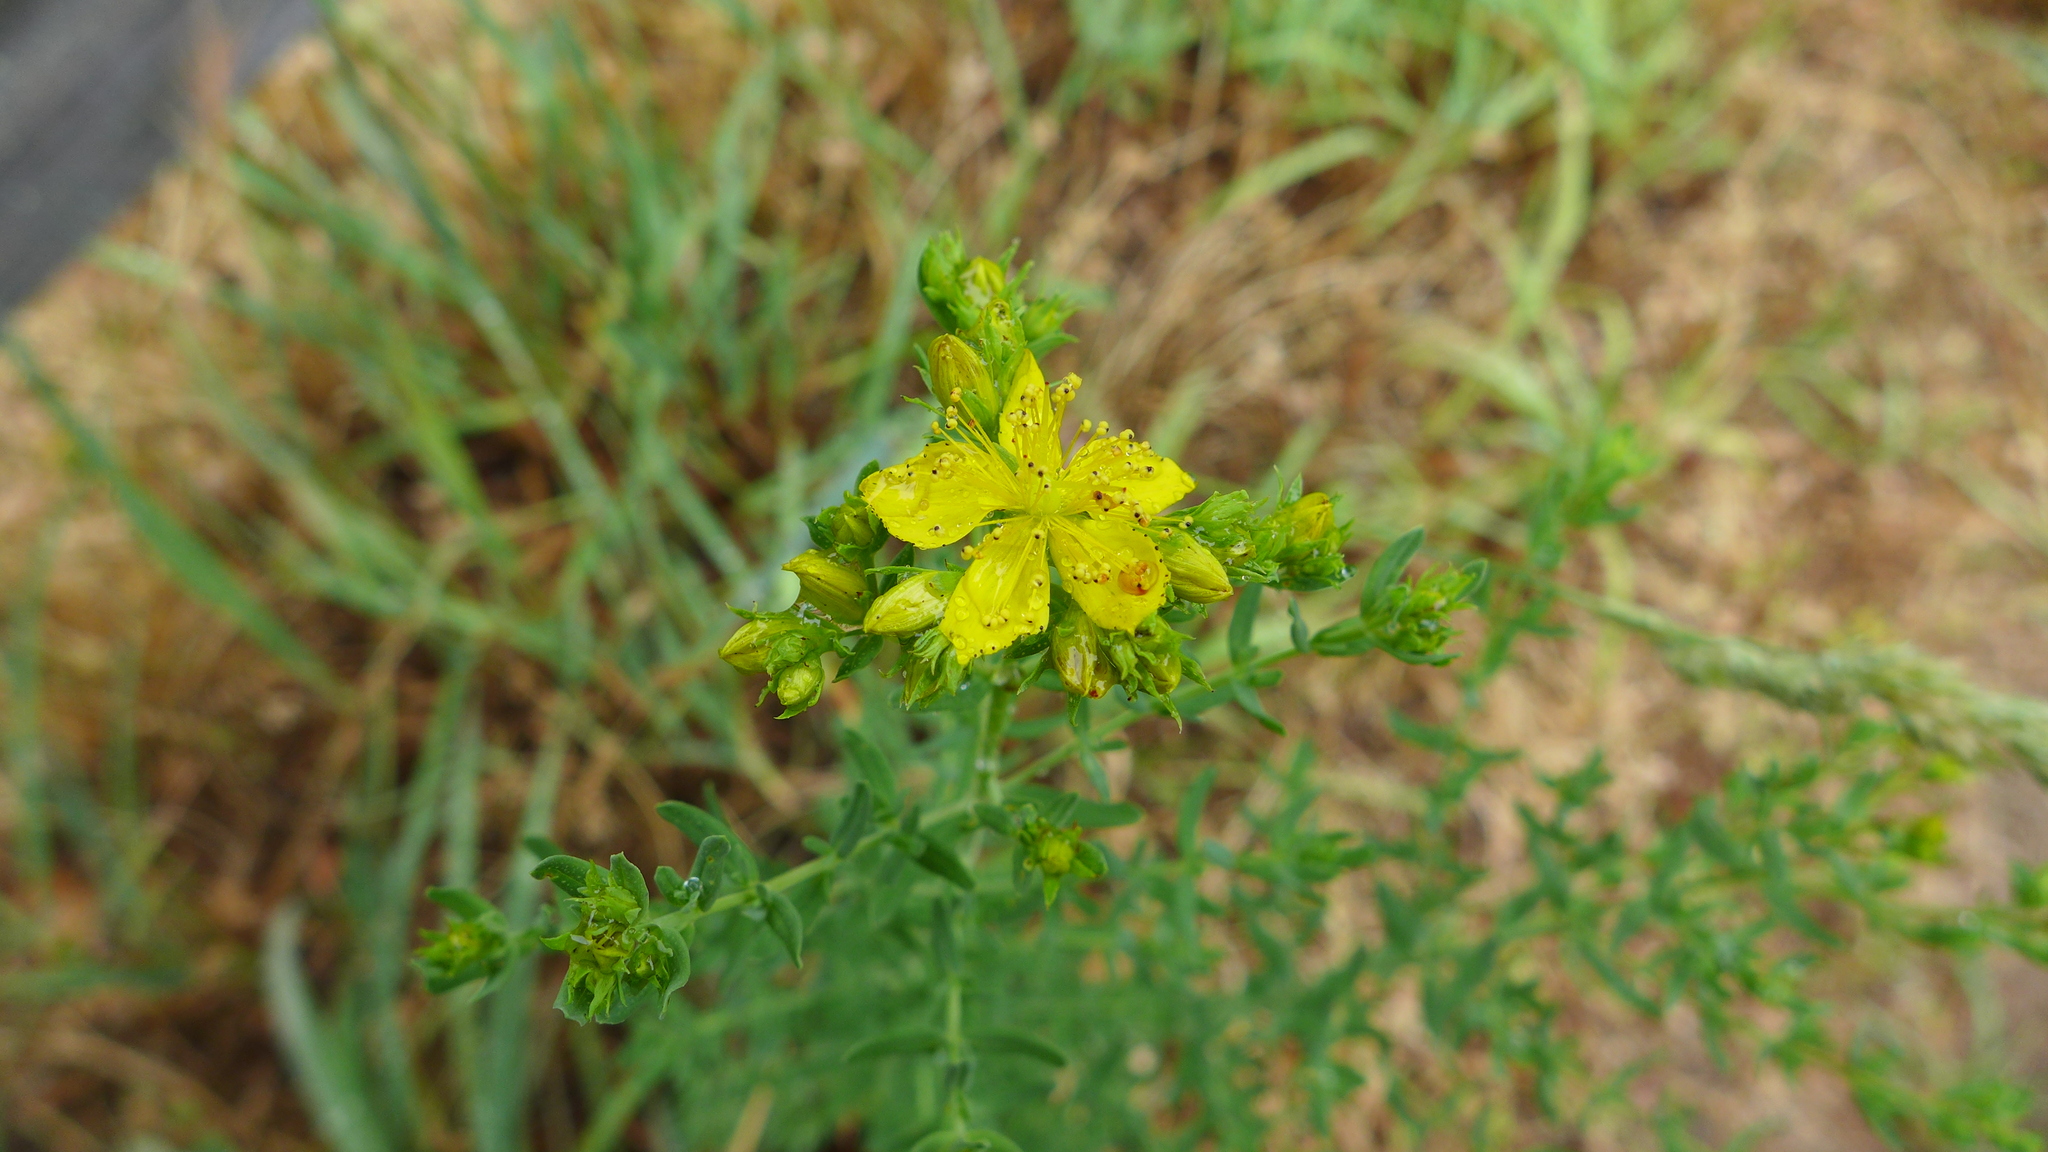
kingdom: Plantae
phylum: Tracheophyta
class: Magnoliopsida
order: Malpighiales
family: Hypericaceae
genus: Hypericum
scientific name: Hypericum perforatum
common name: Common st. johnswort
